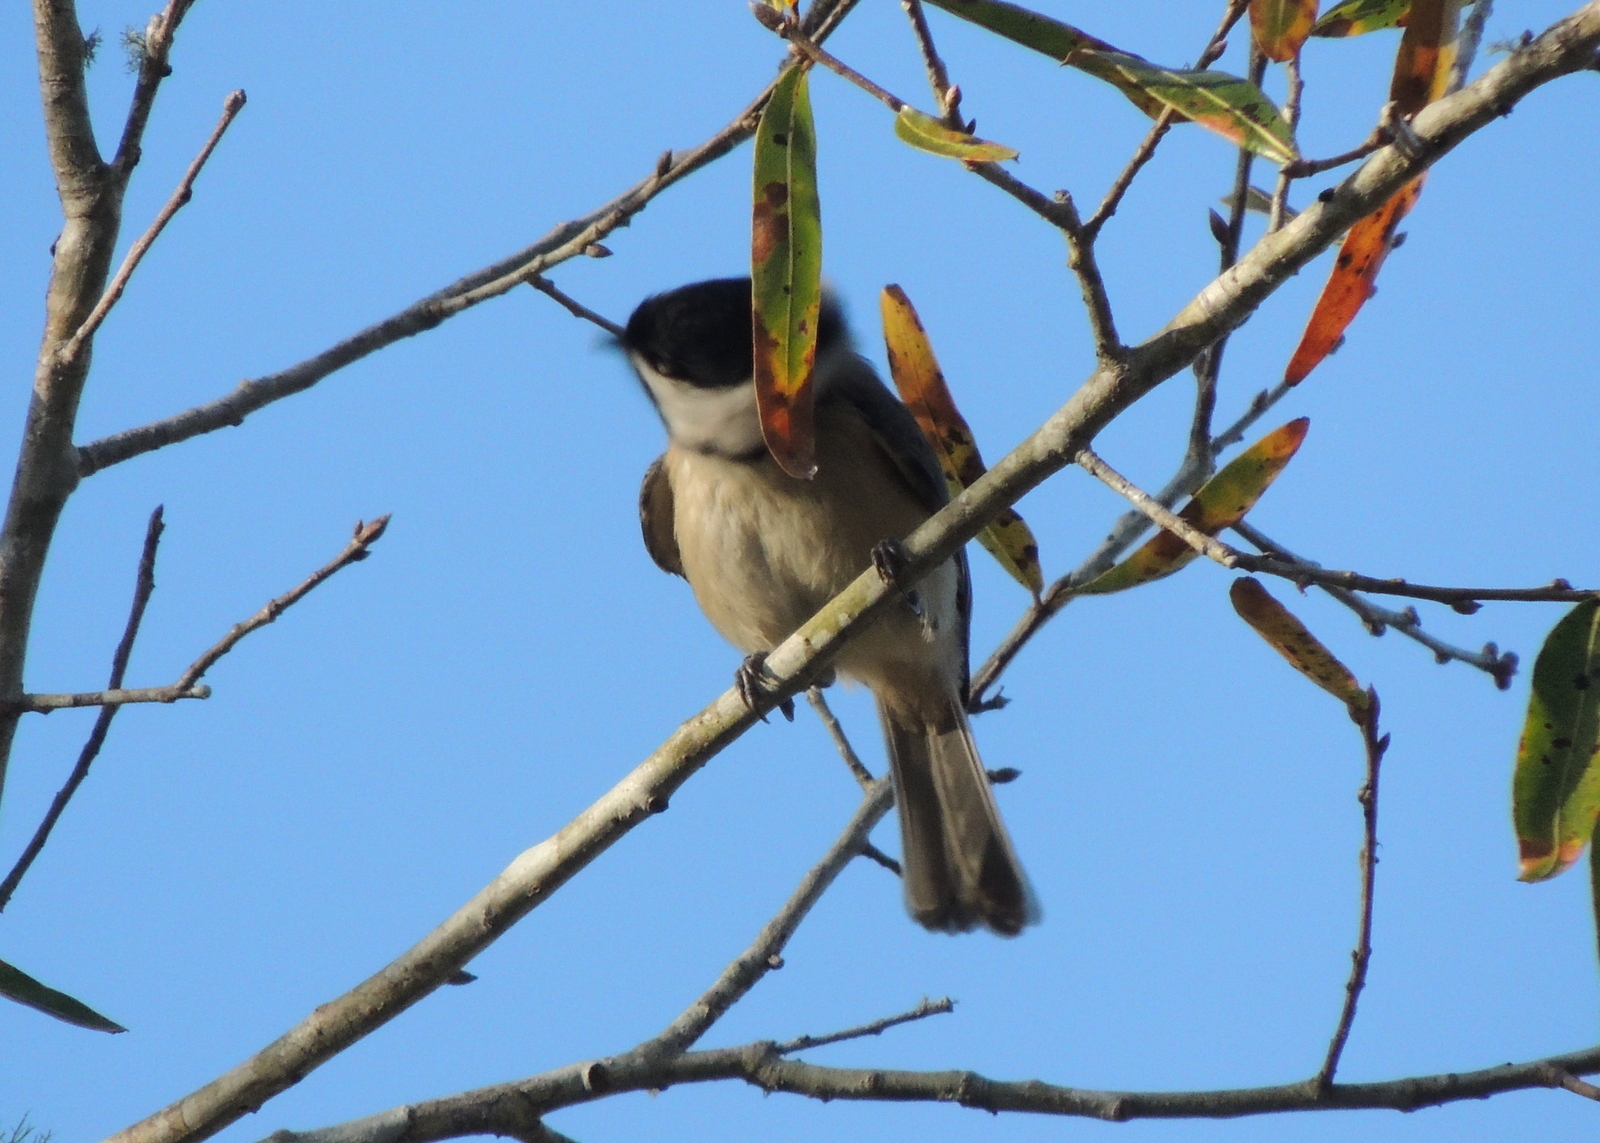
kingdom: Animalia
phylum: Chordata
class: Aves
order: Passeriformes
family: Paridae
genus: Poecile
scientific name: Poecile carolinensis
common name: Carolina chickadee
